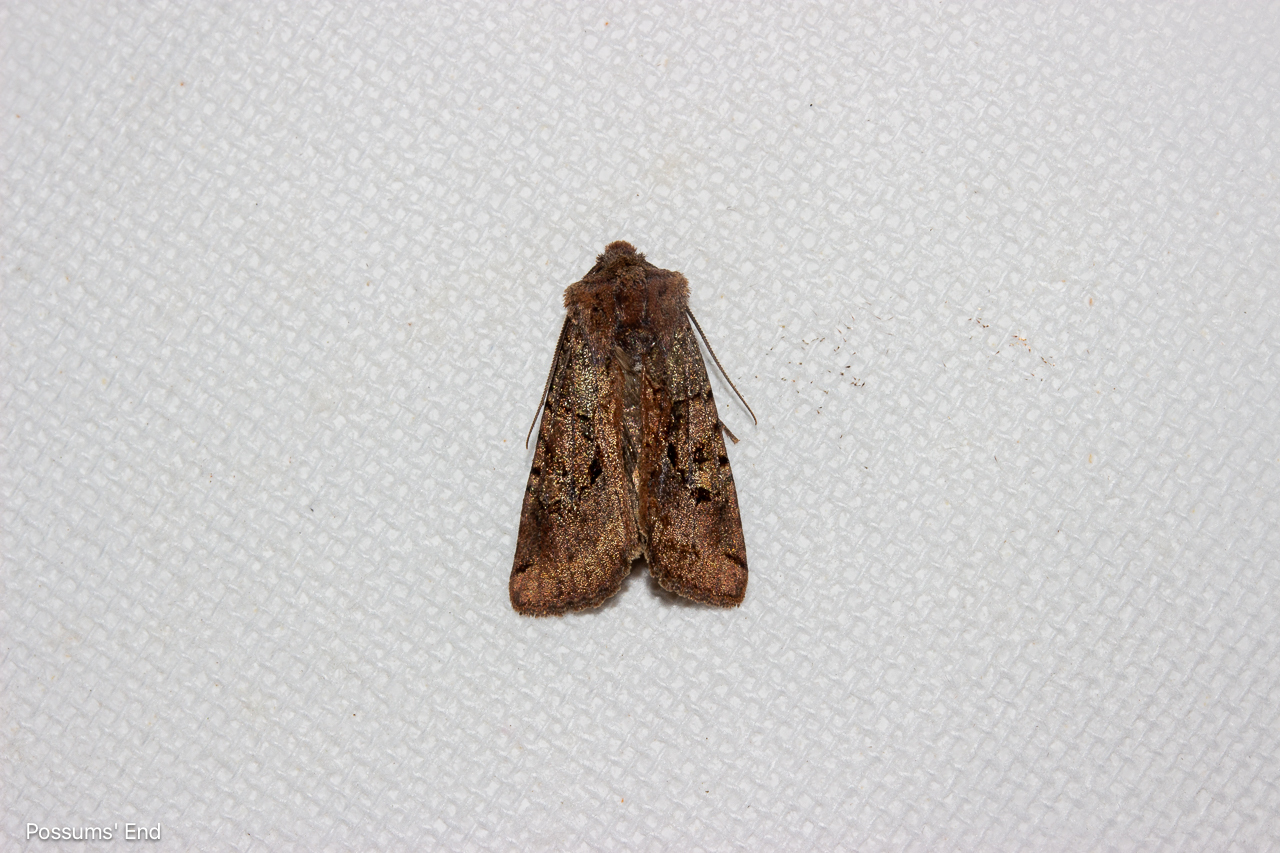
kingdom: Animalia
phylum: Arthropoda
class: Insecta
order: Lepidoptera
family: Noctuidae
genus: Meterana
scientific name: Meterana tartaraea
